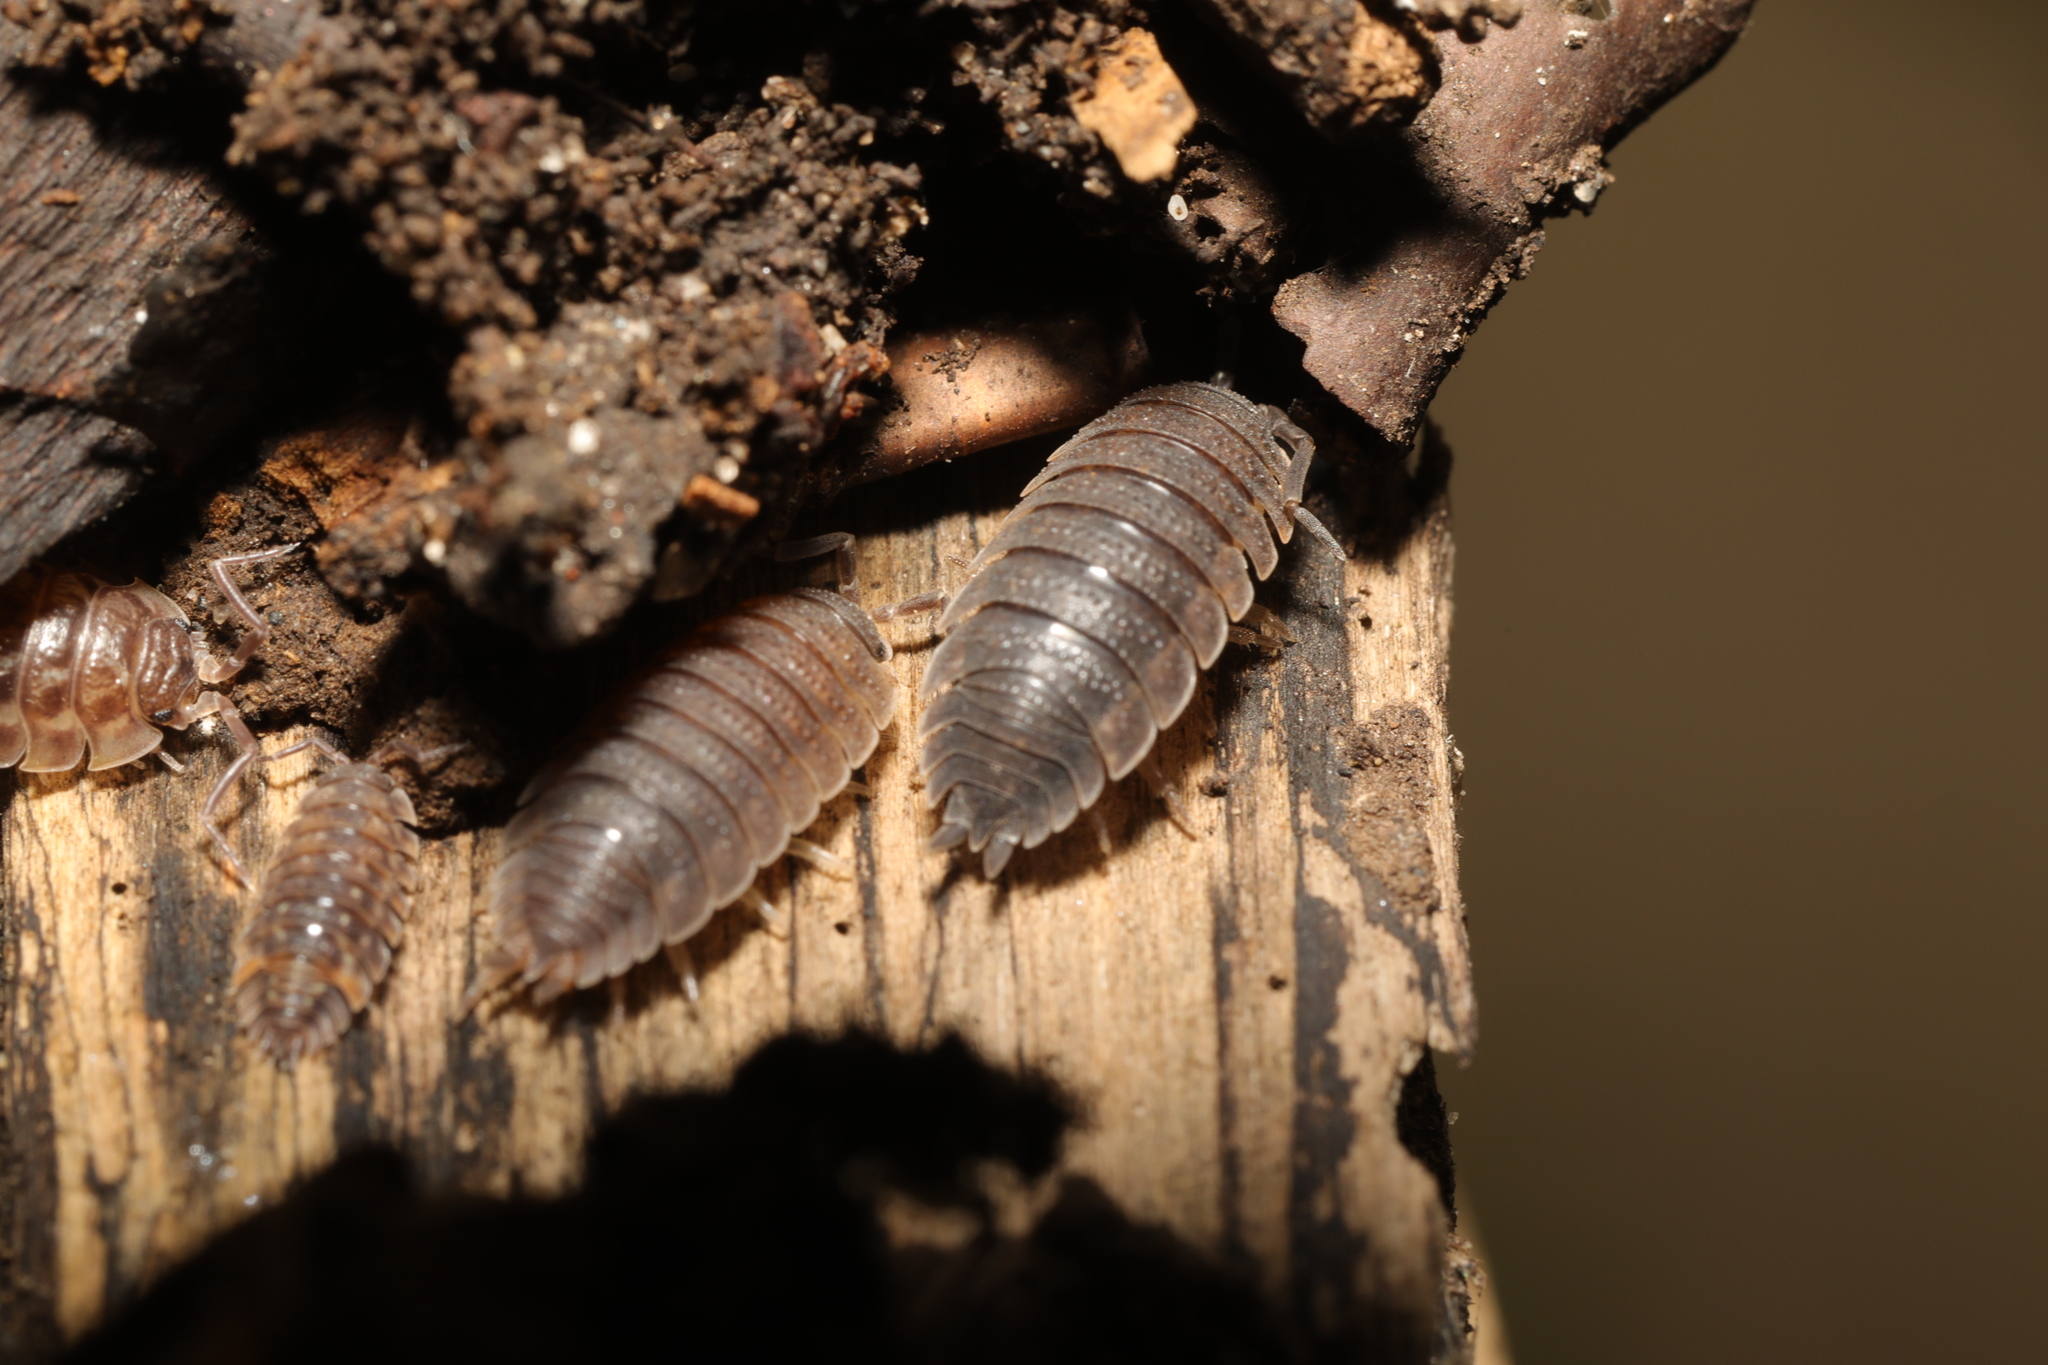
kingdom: Animalia
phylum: Arthropoda
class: Malacostraca
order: Isopoda
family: Porcellionidae
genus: Porcellio
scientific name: Porcellio scaber
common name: Common rough woodlouse
